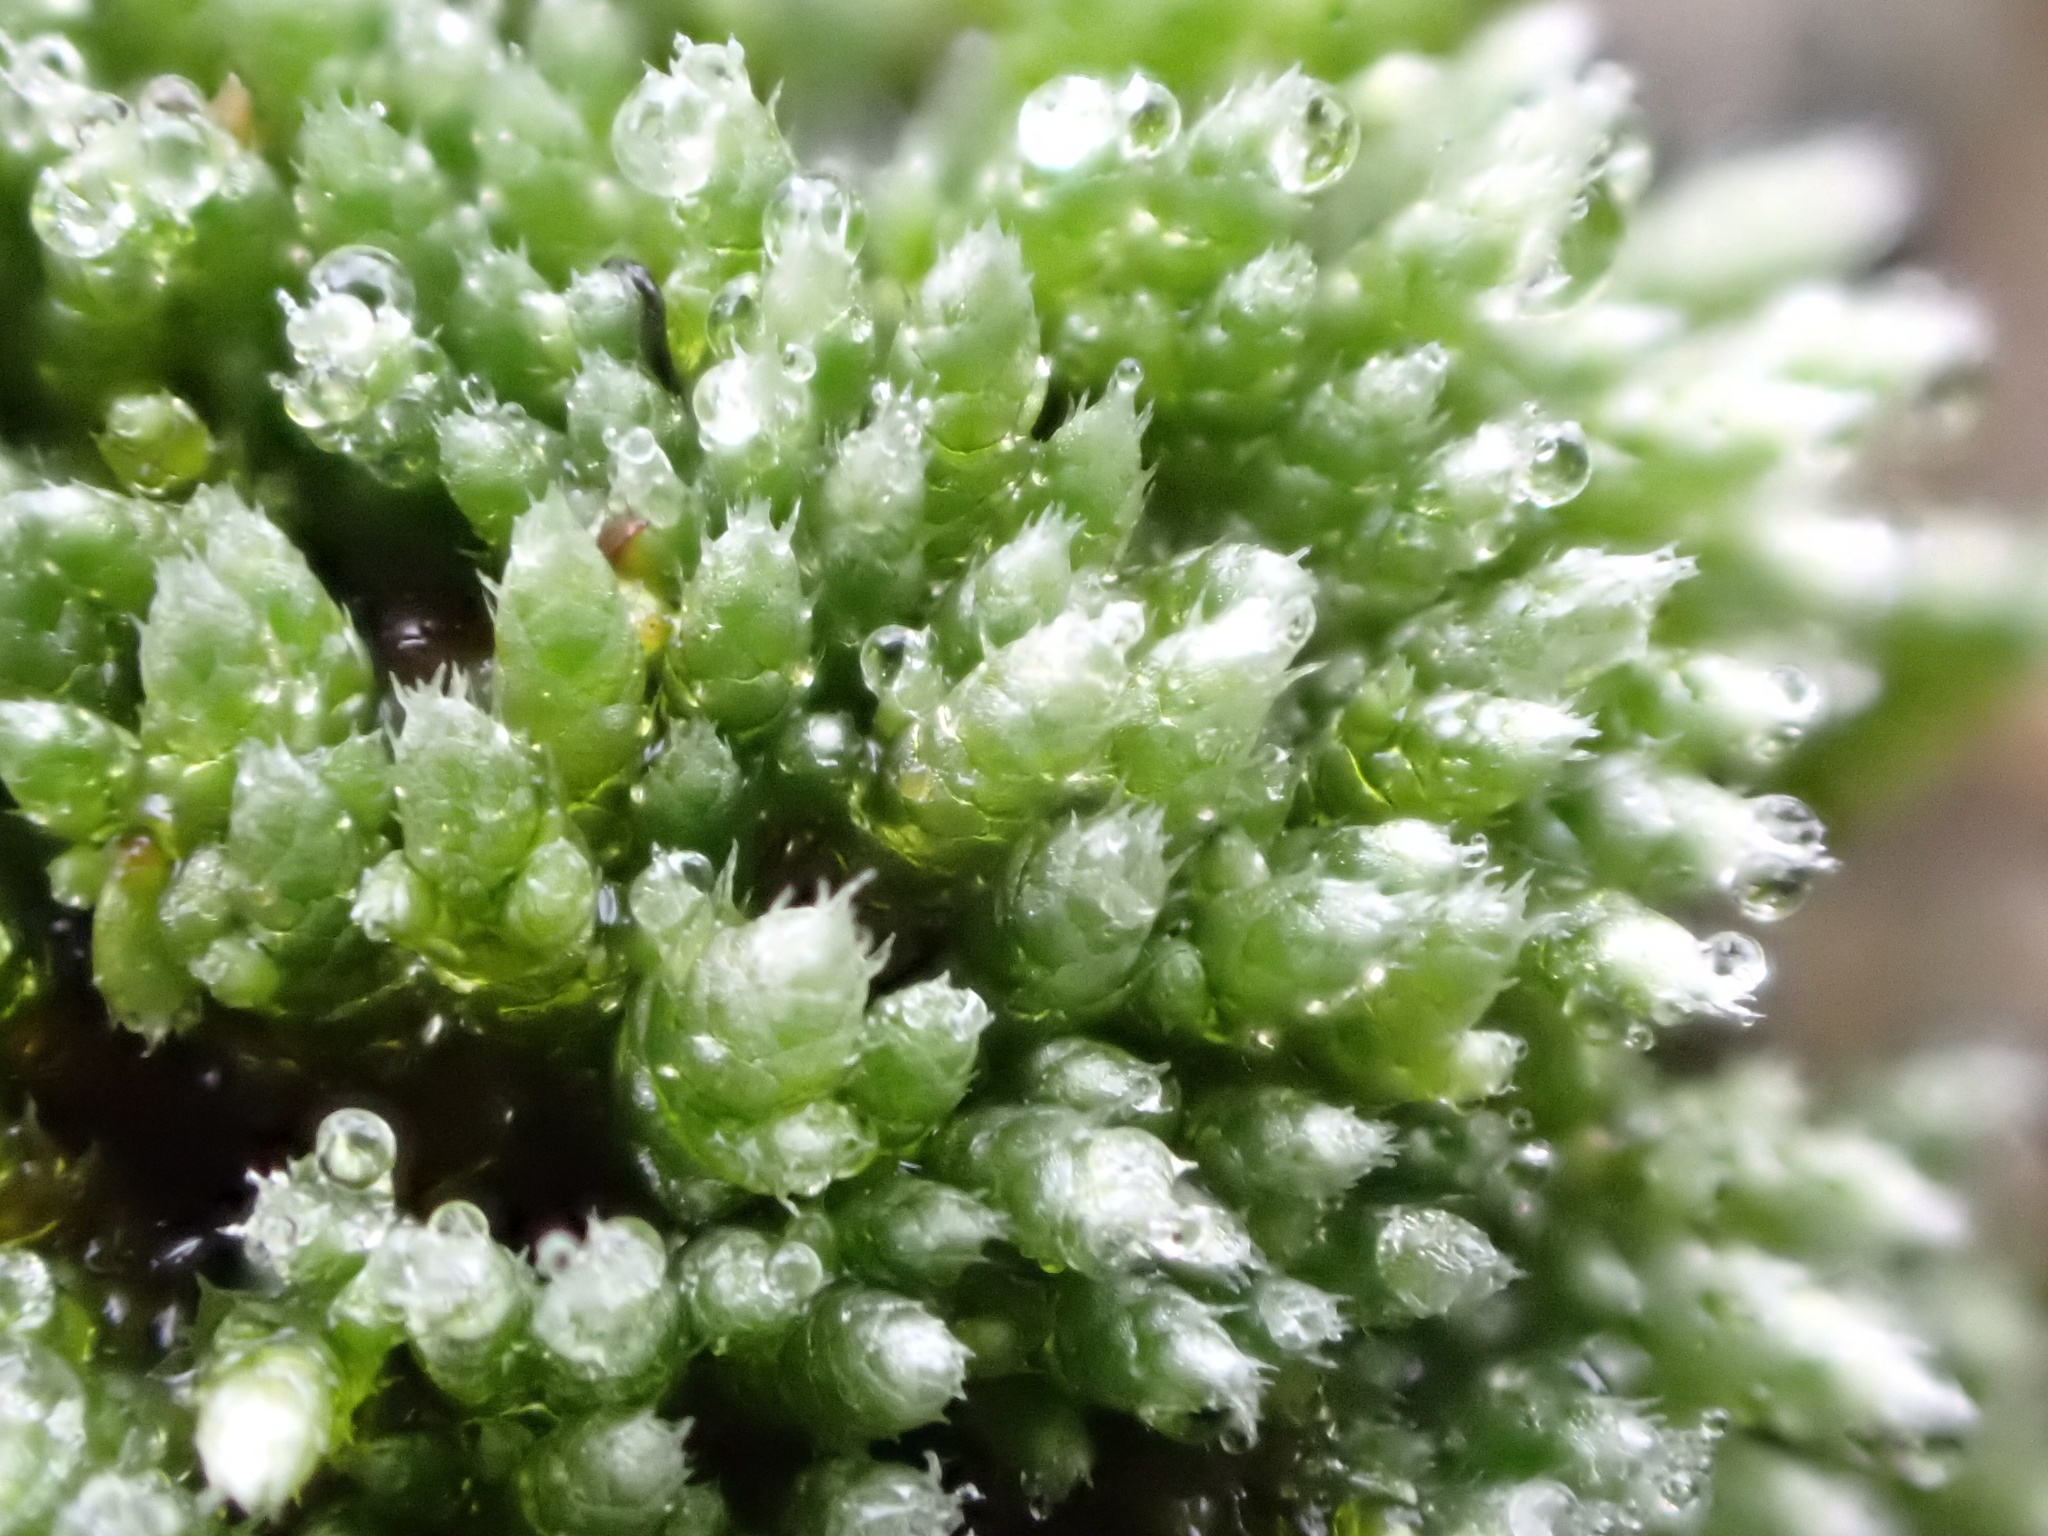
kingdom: Plantae
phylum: Bryophyta
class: Bryopsida
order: Bryales
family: Bryaceae
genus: Bryum
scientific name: Bryum argenteum
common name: Silver-moss
